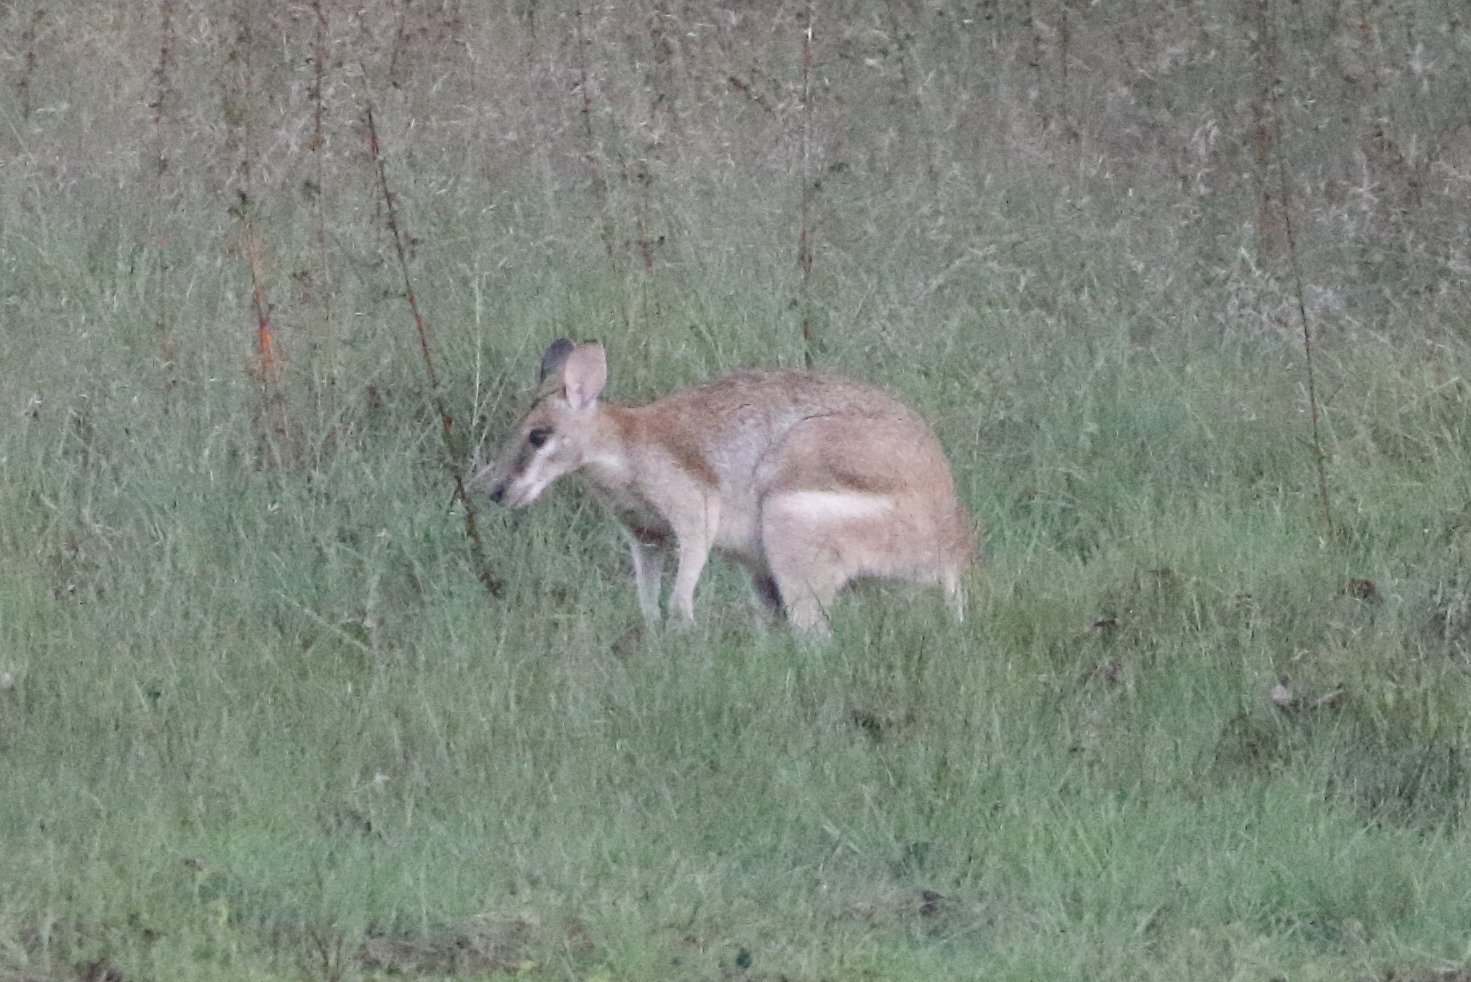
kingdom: Animalia
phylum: Chordata
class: Mammalia
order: Diprotodontia
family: Macropodidae
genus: Macropus
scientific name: Macropus agilis
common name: Agile wallaby
